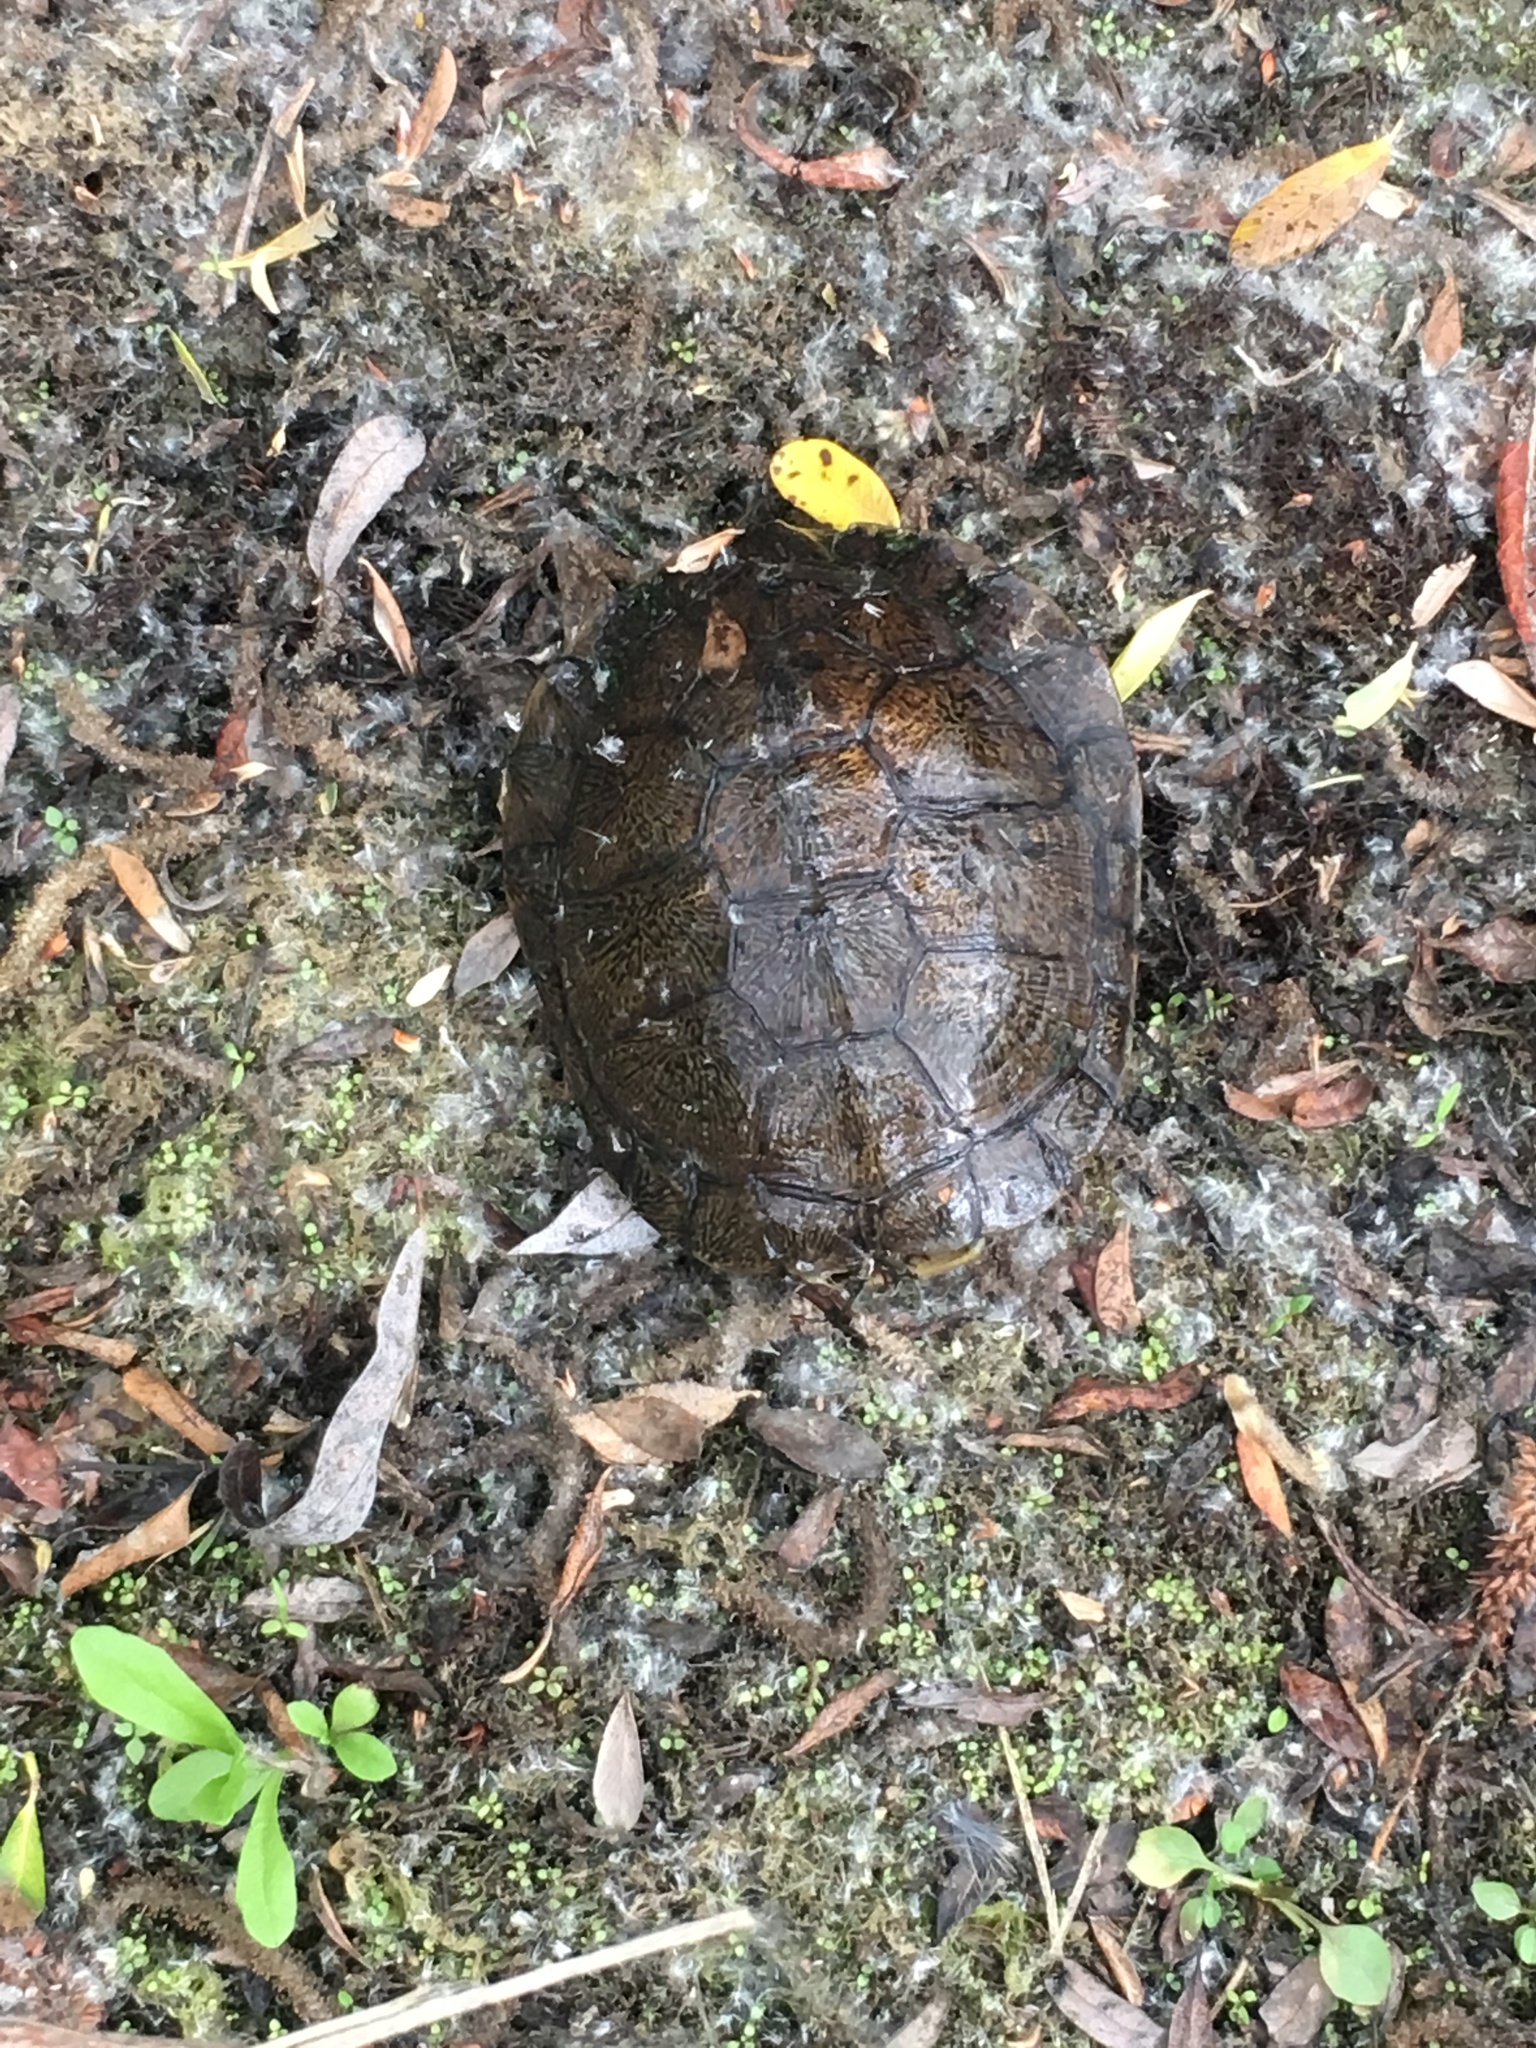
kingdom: Animalia
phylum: Chordata
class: Testudines
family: Emydidae
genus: Actinemys
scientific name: Actinemys marmorata
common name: Western pond turtle
